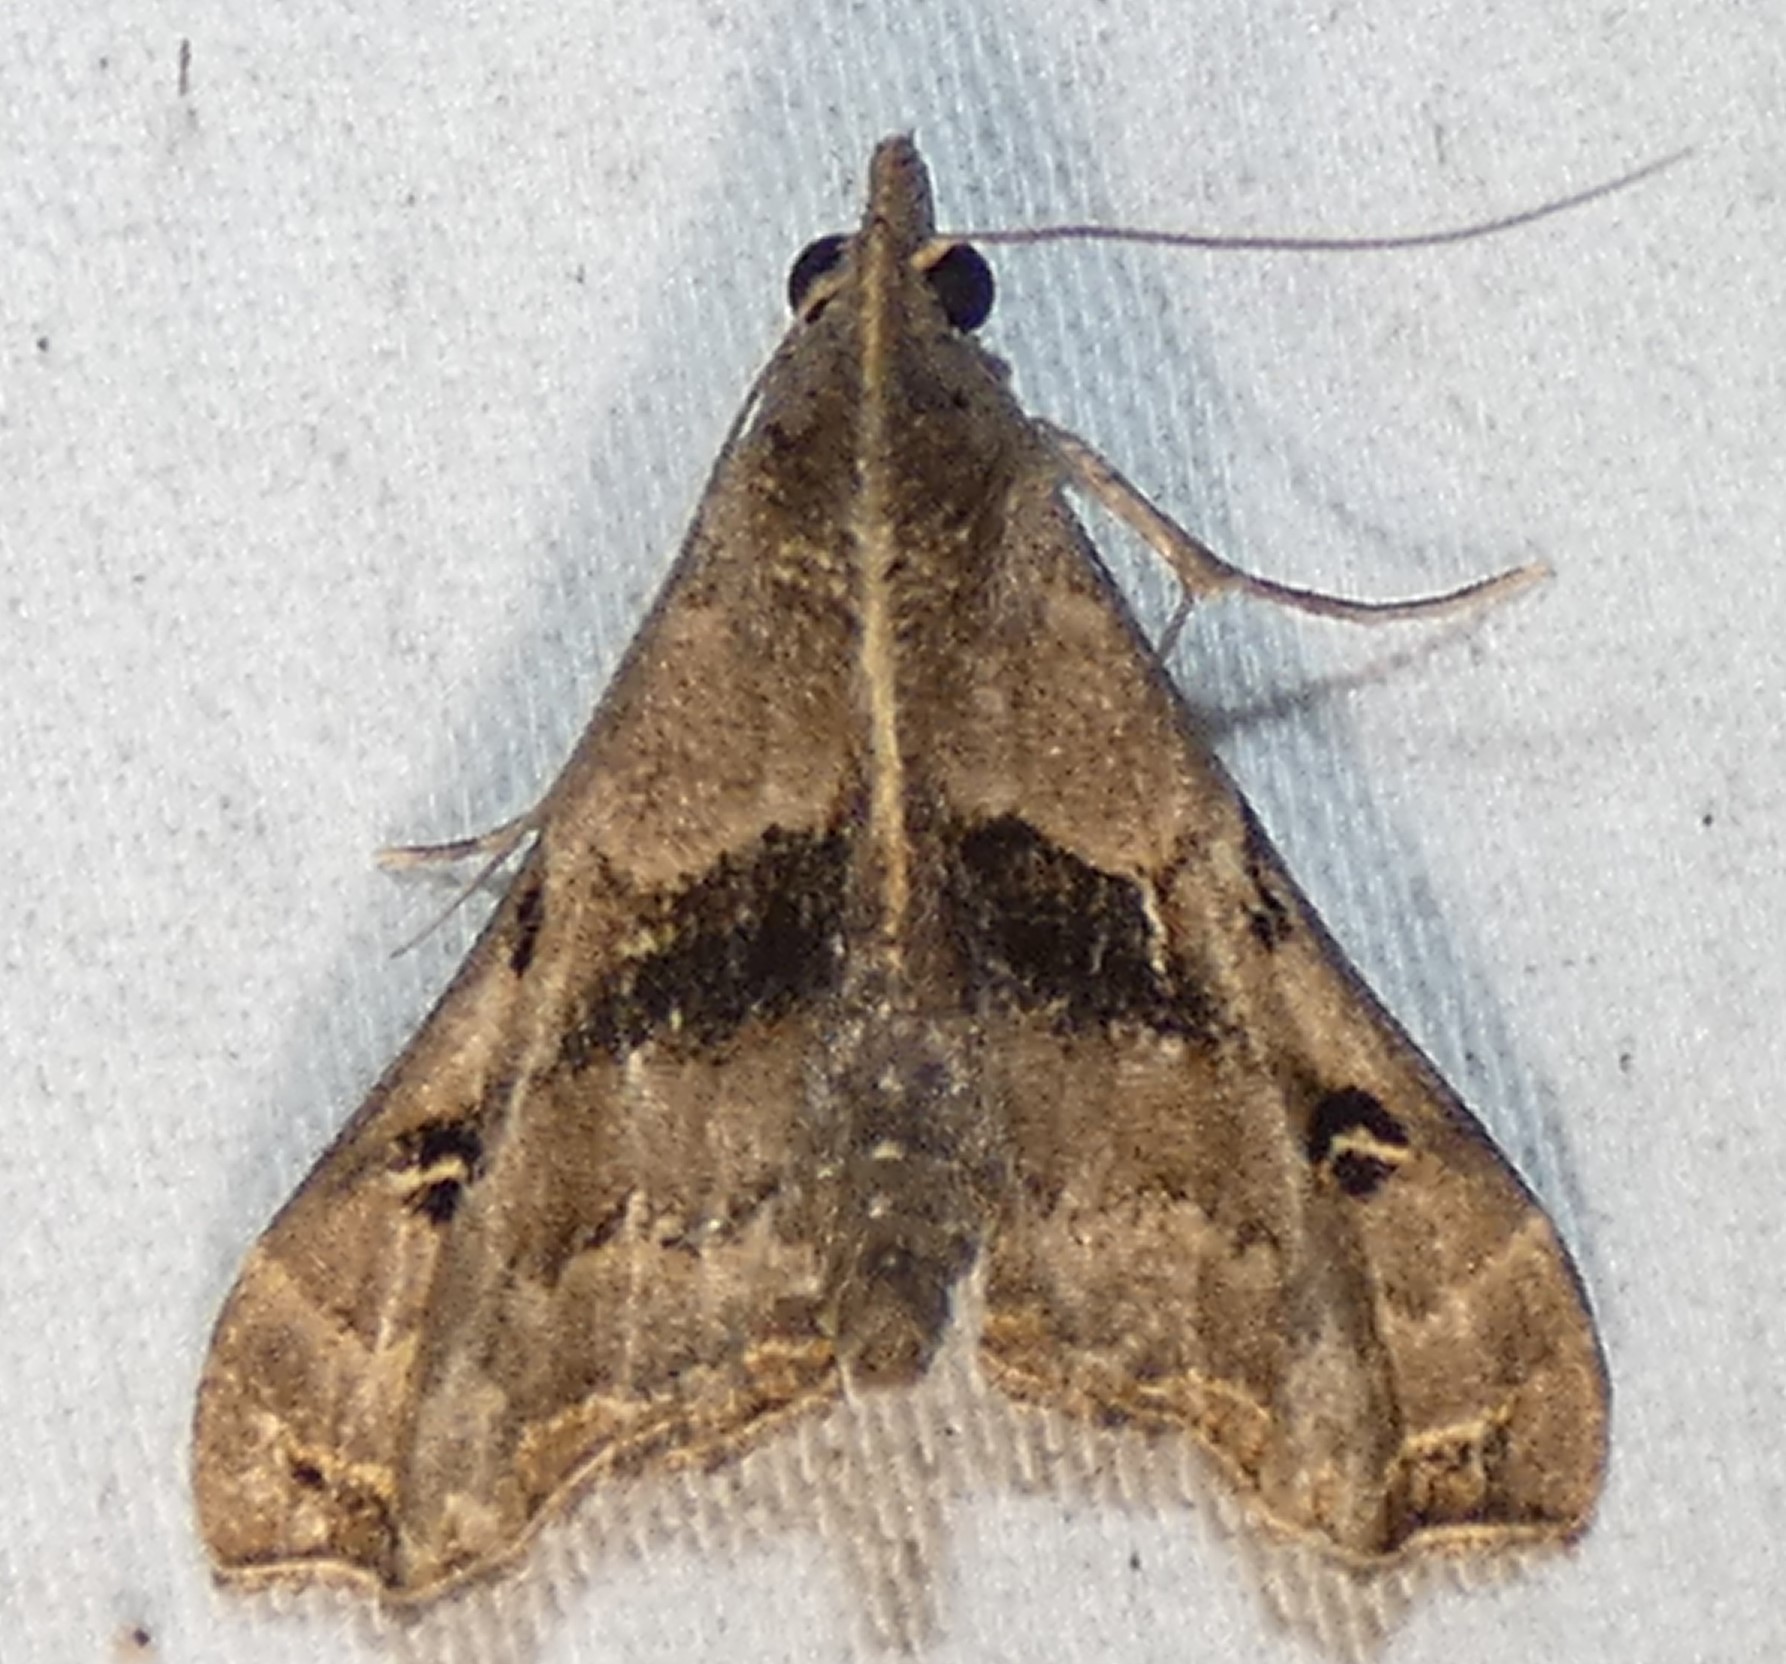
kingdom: Animalia
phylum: Arthropoda
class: Insecta
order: Lepidoptera
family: Erebidae
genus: Palthis
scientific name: Palthis asopialis
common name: Faint-spotted palthis moth
